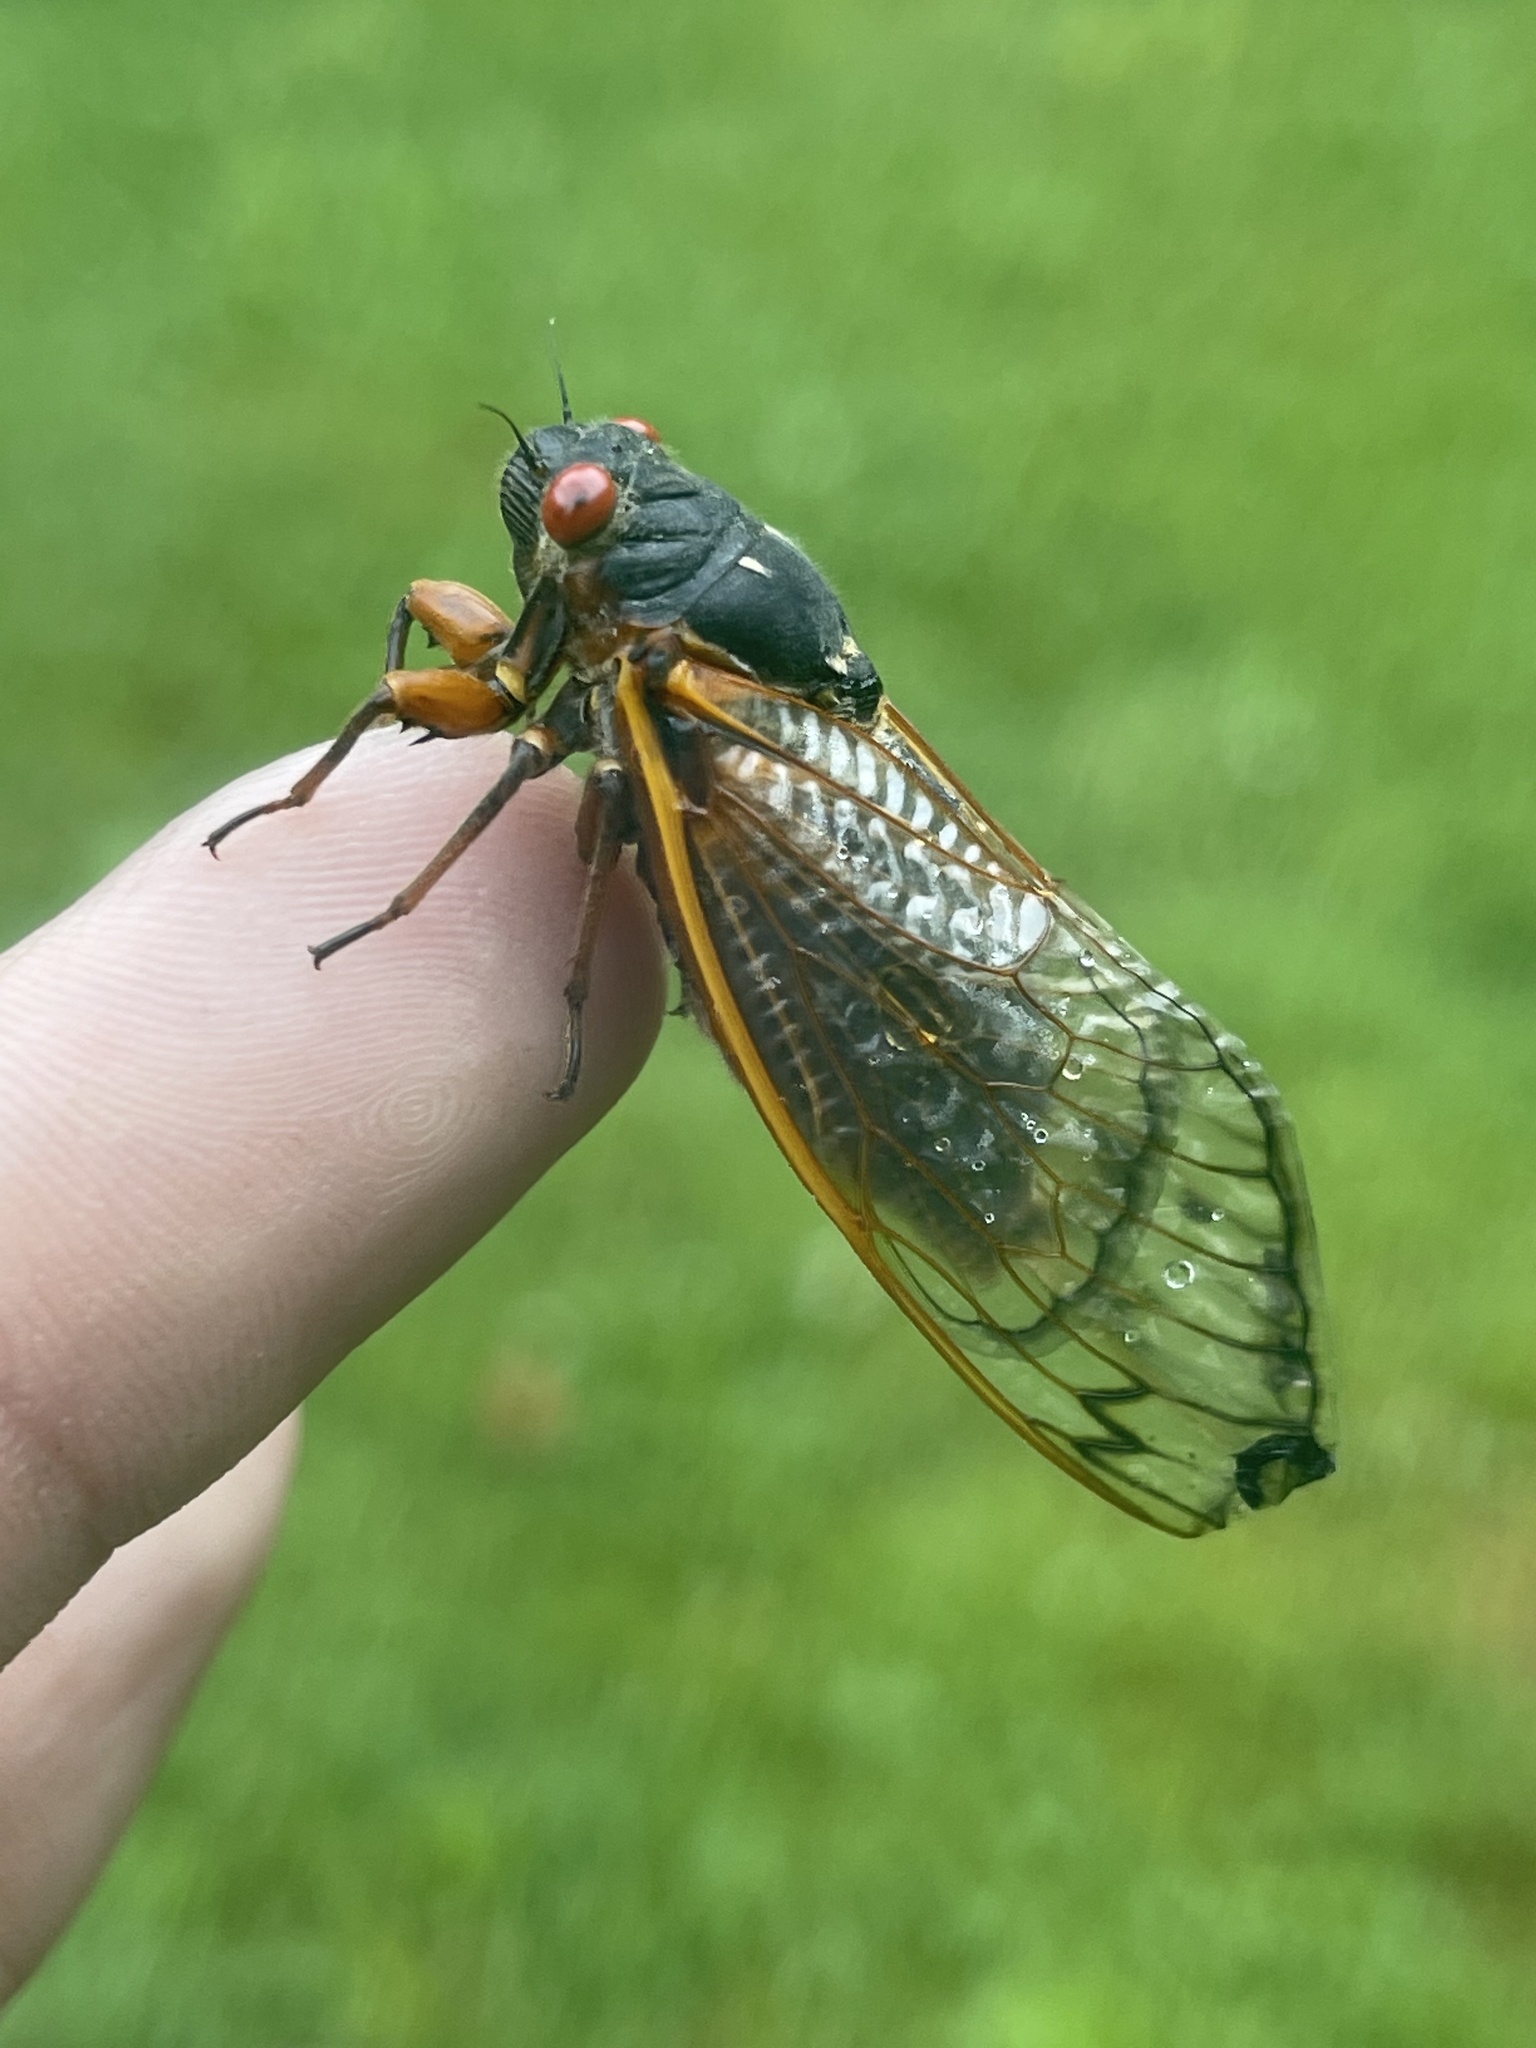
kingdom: Animalia
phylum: Arthropoda
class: Insecta
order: Hemiptera
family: Cicadidae
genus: Magicicada
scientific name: Magicicada septendecim
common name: Periodical cicada
